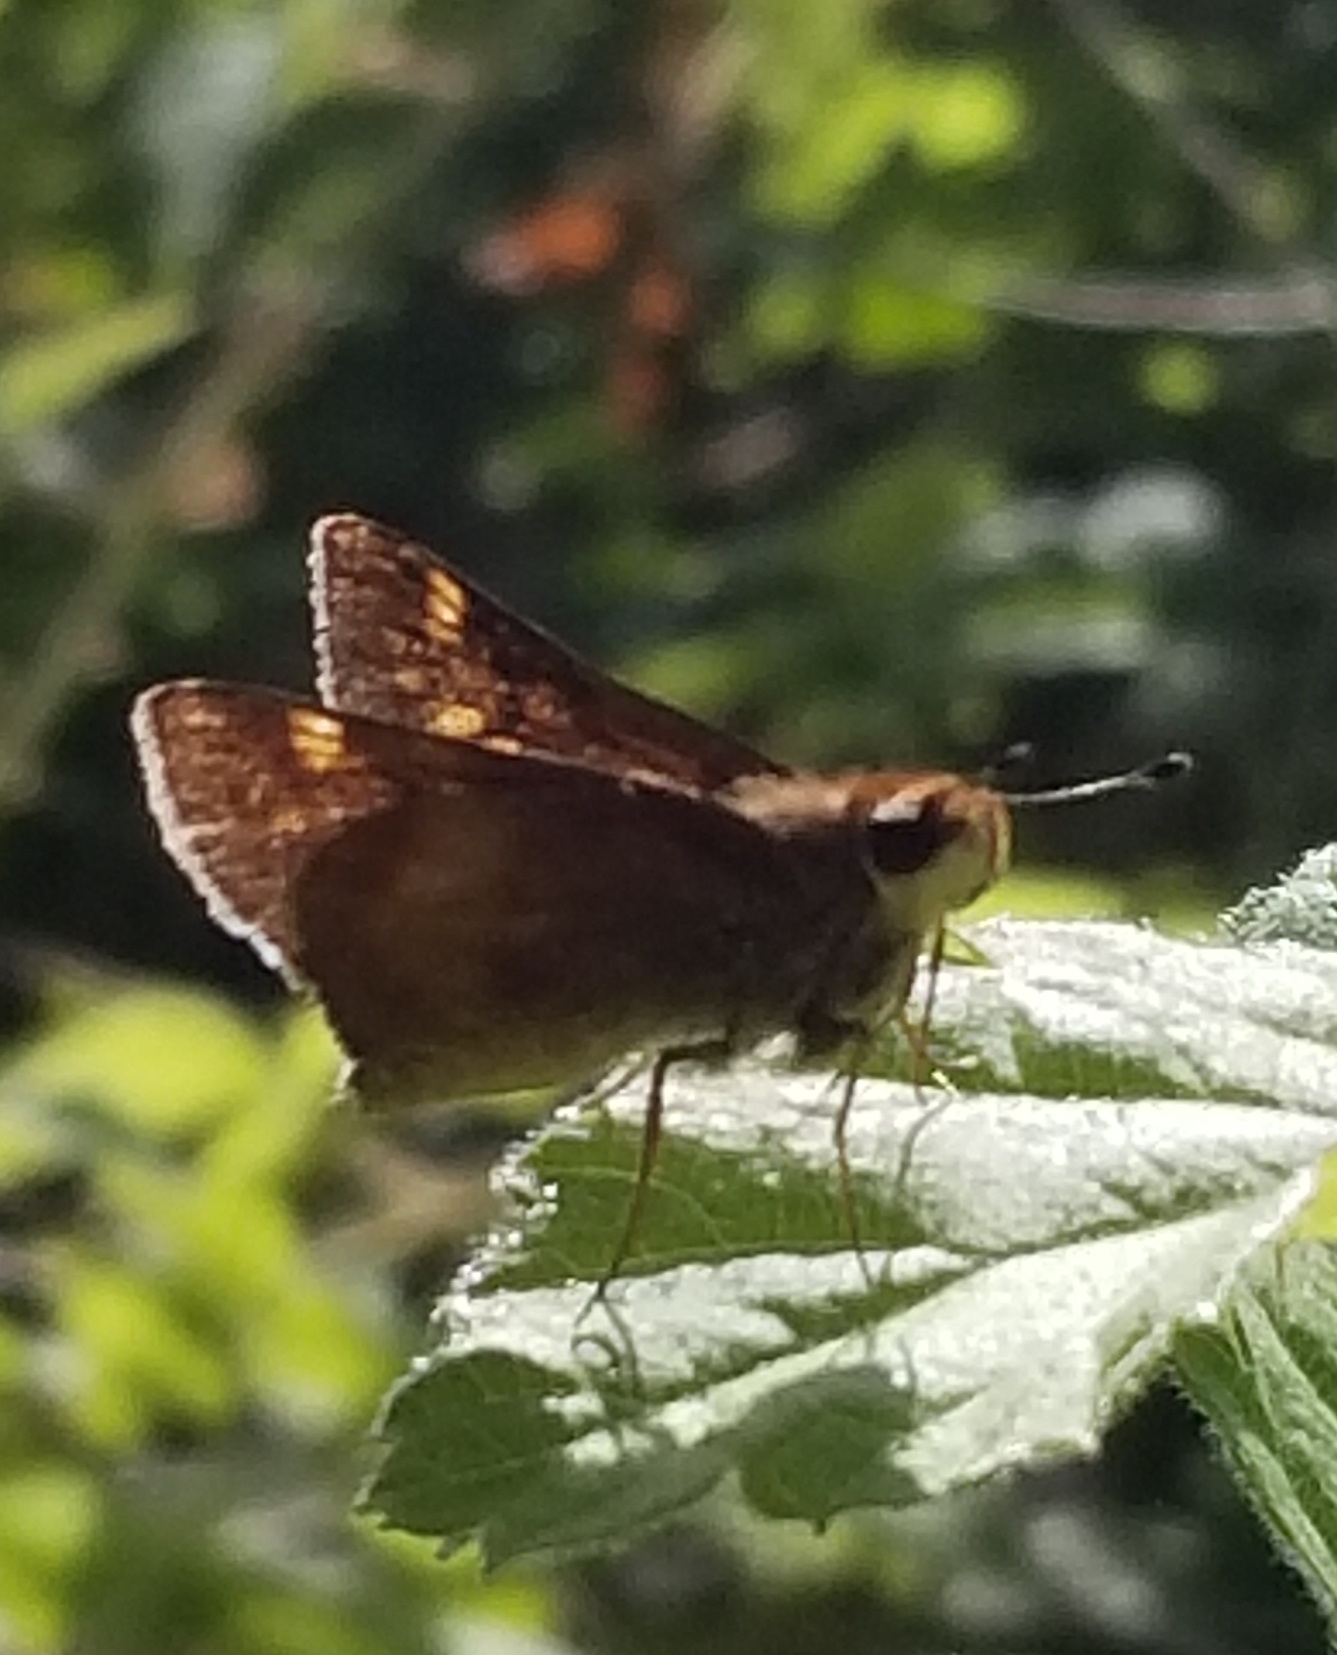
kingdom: Animalia
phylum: Arthropoda
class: Insecta
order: Lepidoptera
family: Hesperiidae
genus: Lon
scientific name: Lon melane
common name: Umber skipper
